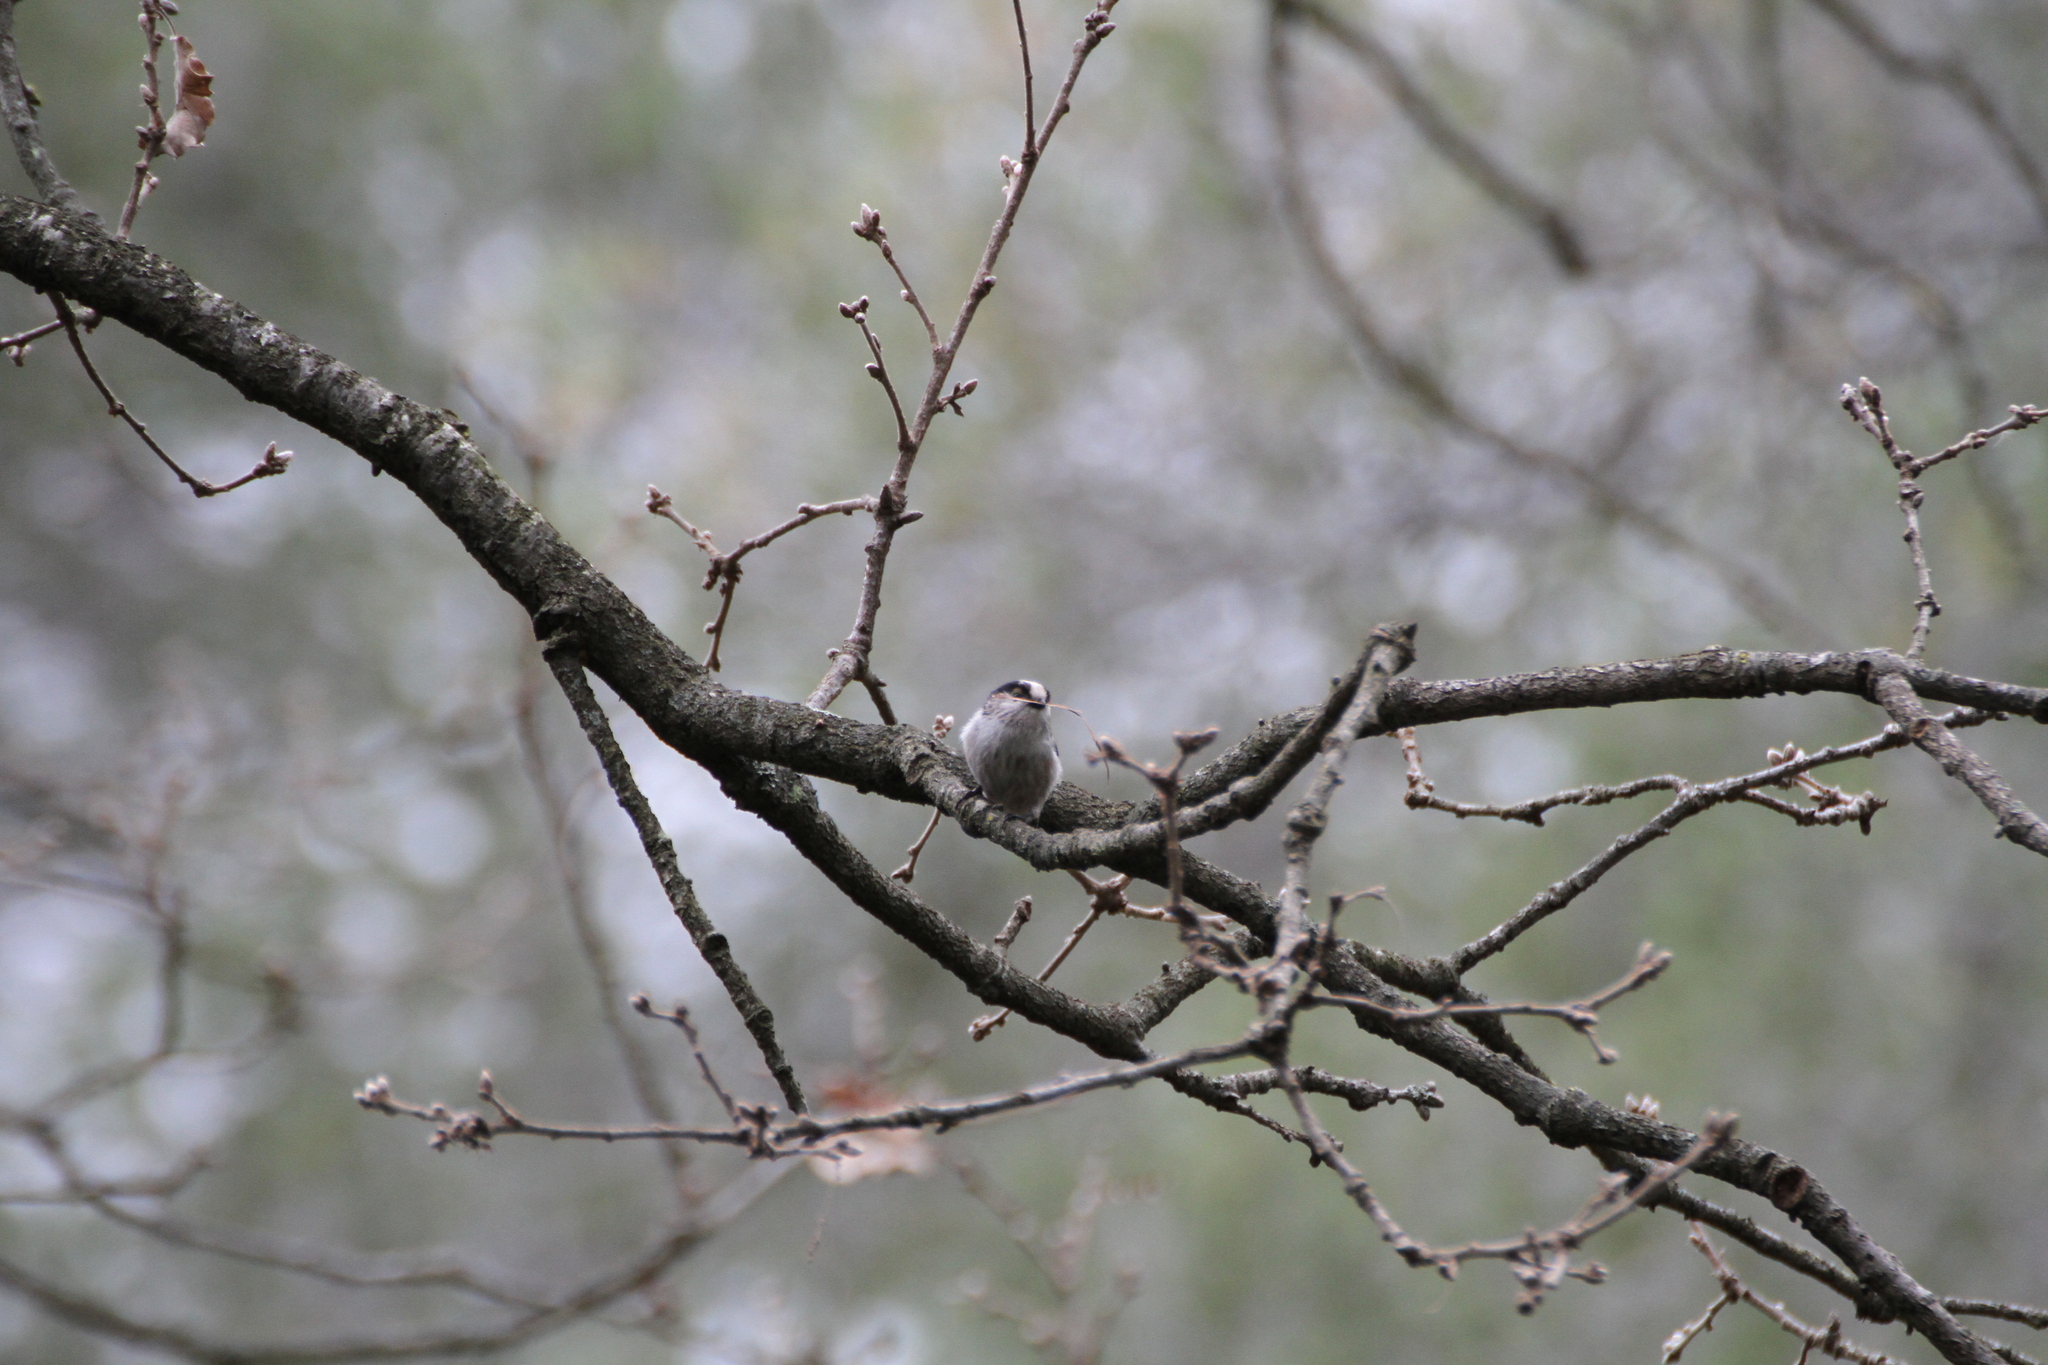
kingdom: Animalia
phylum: Chordata
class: Aves
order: Passeriformes
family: Aegithalidae
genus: Aegithalos
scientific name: Aegithalos caudatus
